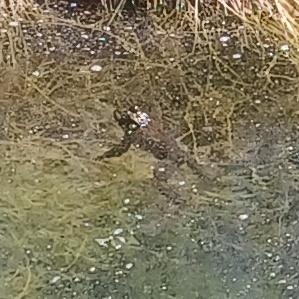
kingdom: Animalia
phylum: Chordata
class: Amphibia
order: Anura
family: Ranidae
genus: Lithobates
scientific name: Lithobates catesbeianus
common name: American bullfrog
